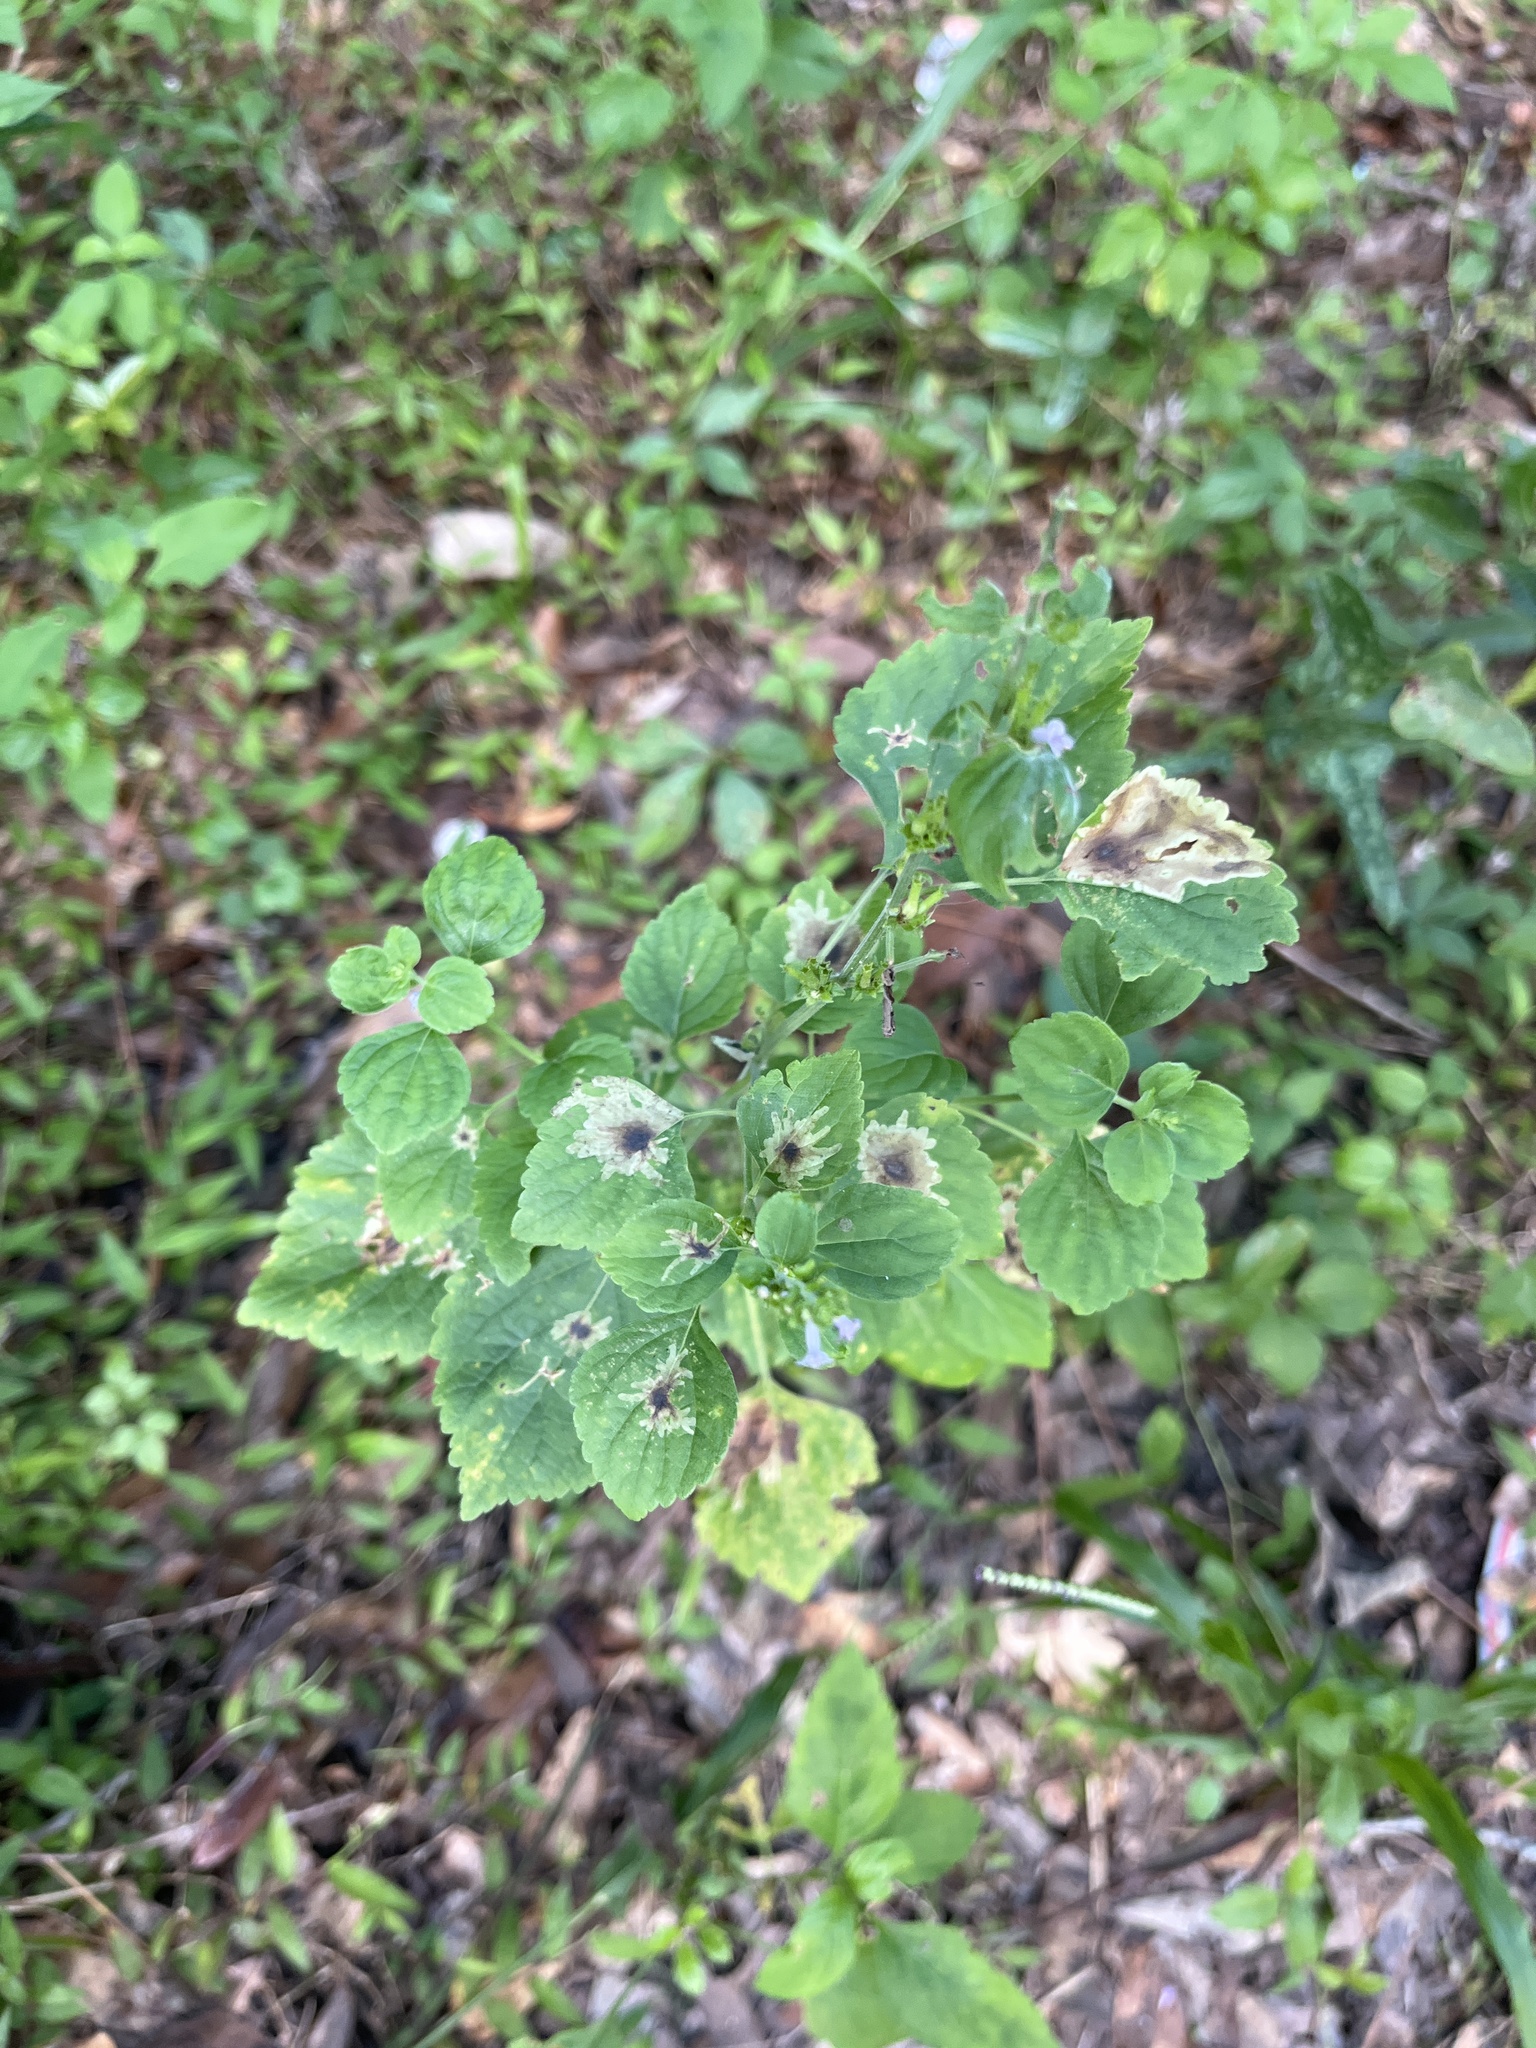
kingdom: Plantae
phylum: Tracheophyta
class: Magnoliopsida
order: Lamiales
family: Lamiaceae
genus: Cantinoa
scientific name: Cantinoa mutabilis
